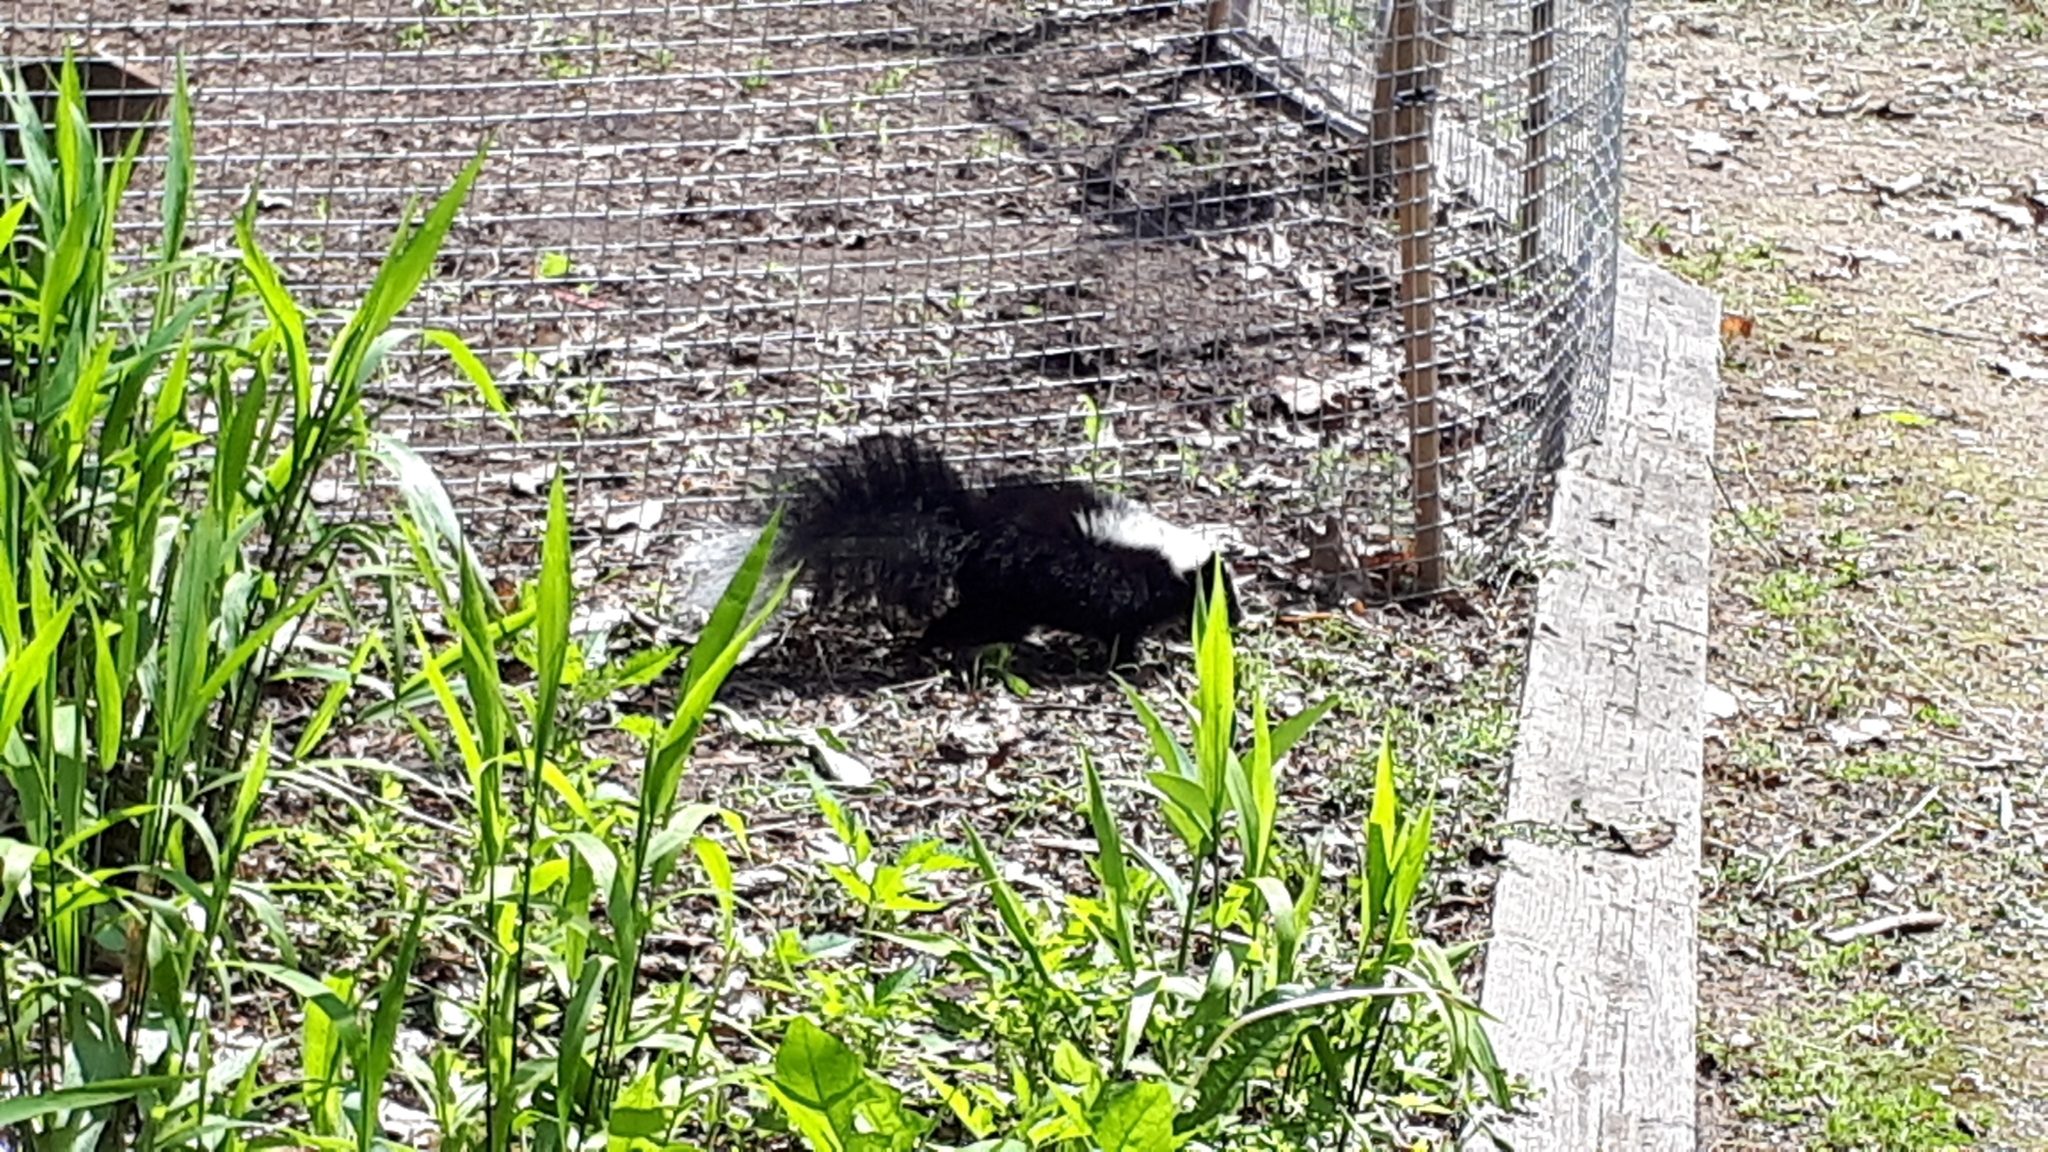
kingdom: Animalia
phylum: Chordata
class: Mammalia
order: Carnivora
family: Mephitidae
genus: Mephitis
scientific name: Mephitis mephitis
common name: Striped skunk
